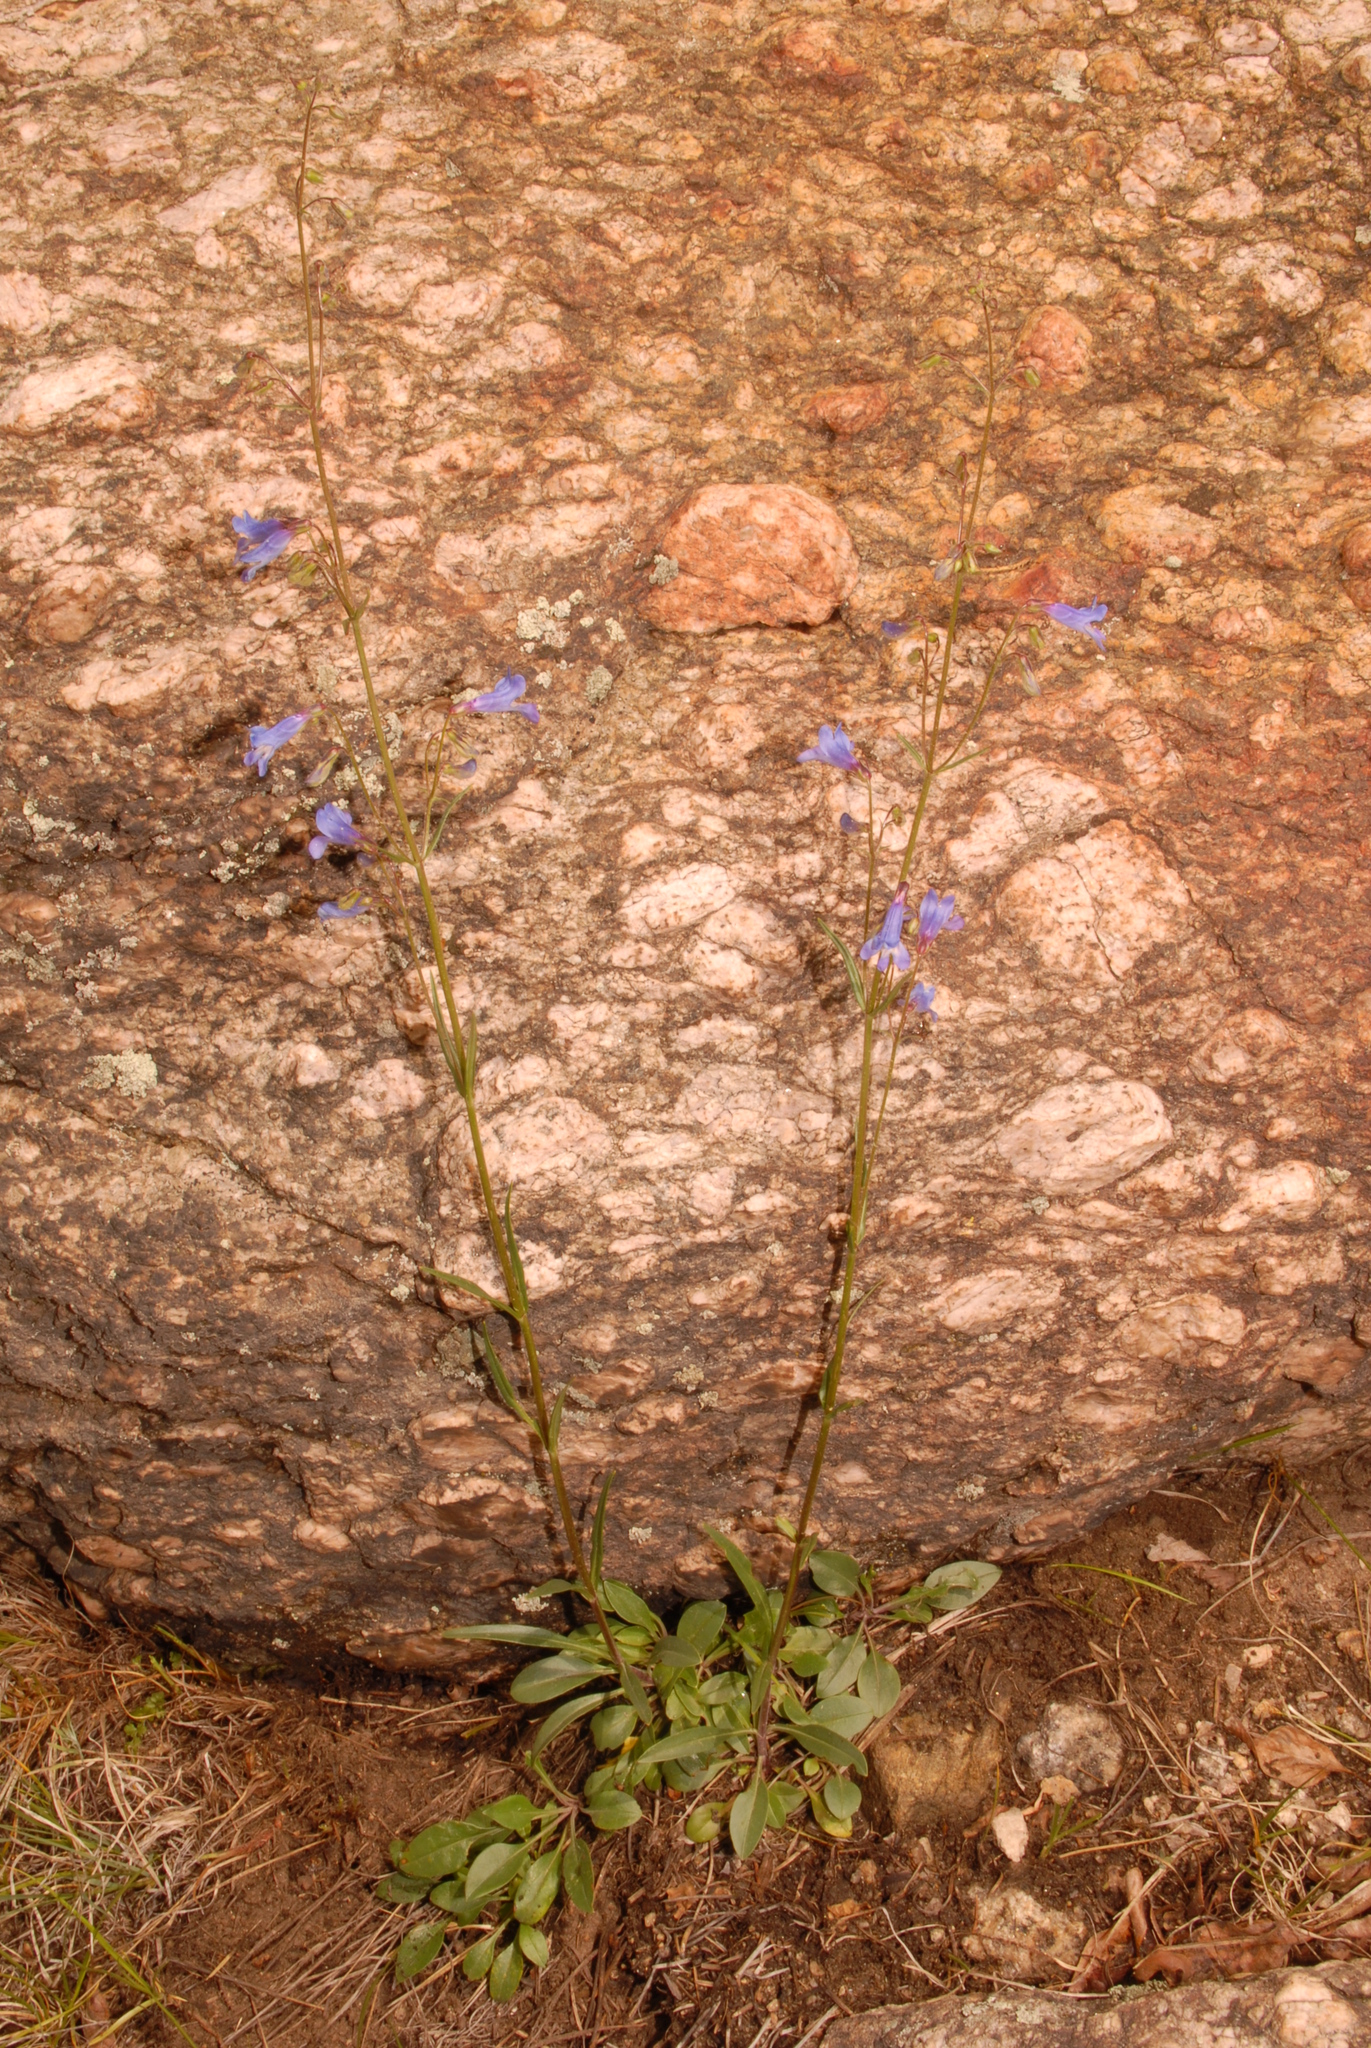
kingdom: Plantae
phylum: Tracheophyta
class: Magnoliopsida
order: Lamiales
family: Plantaginaceae
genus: Penstemon
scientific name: Penstemon griffinii
